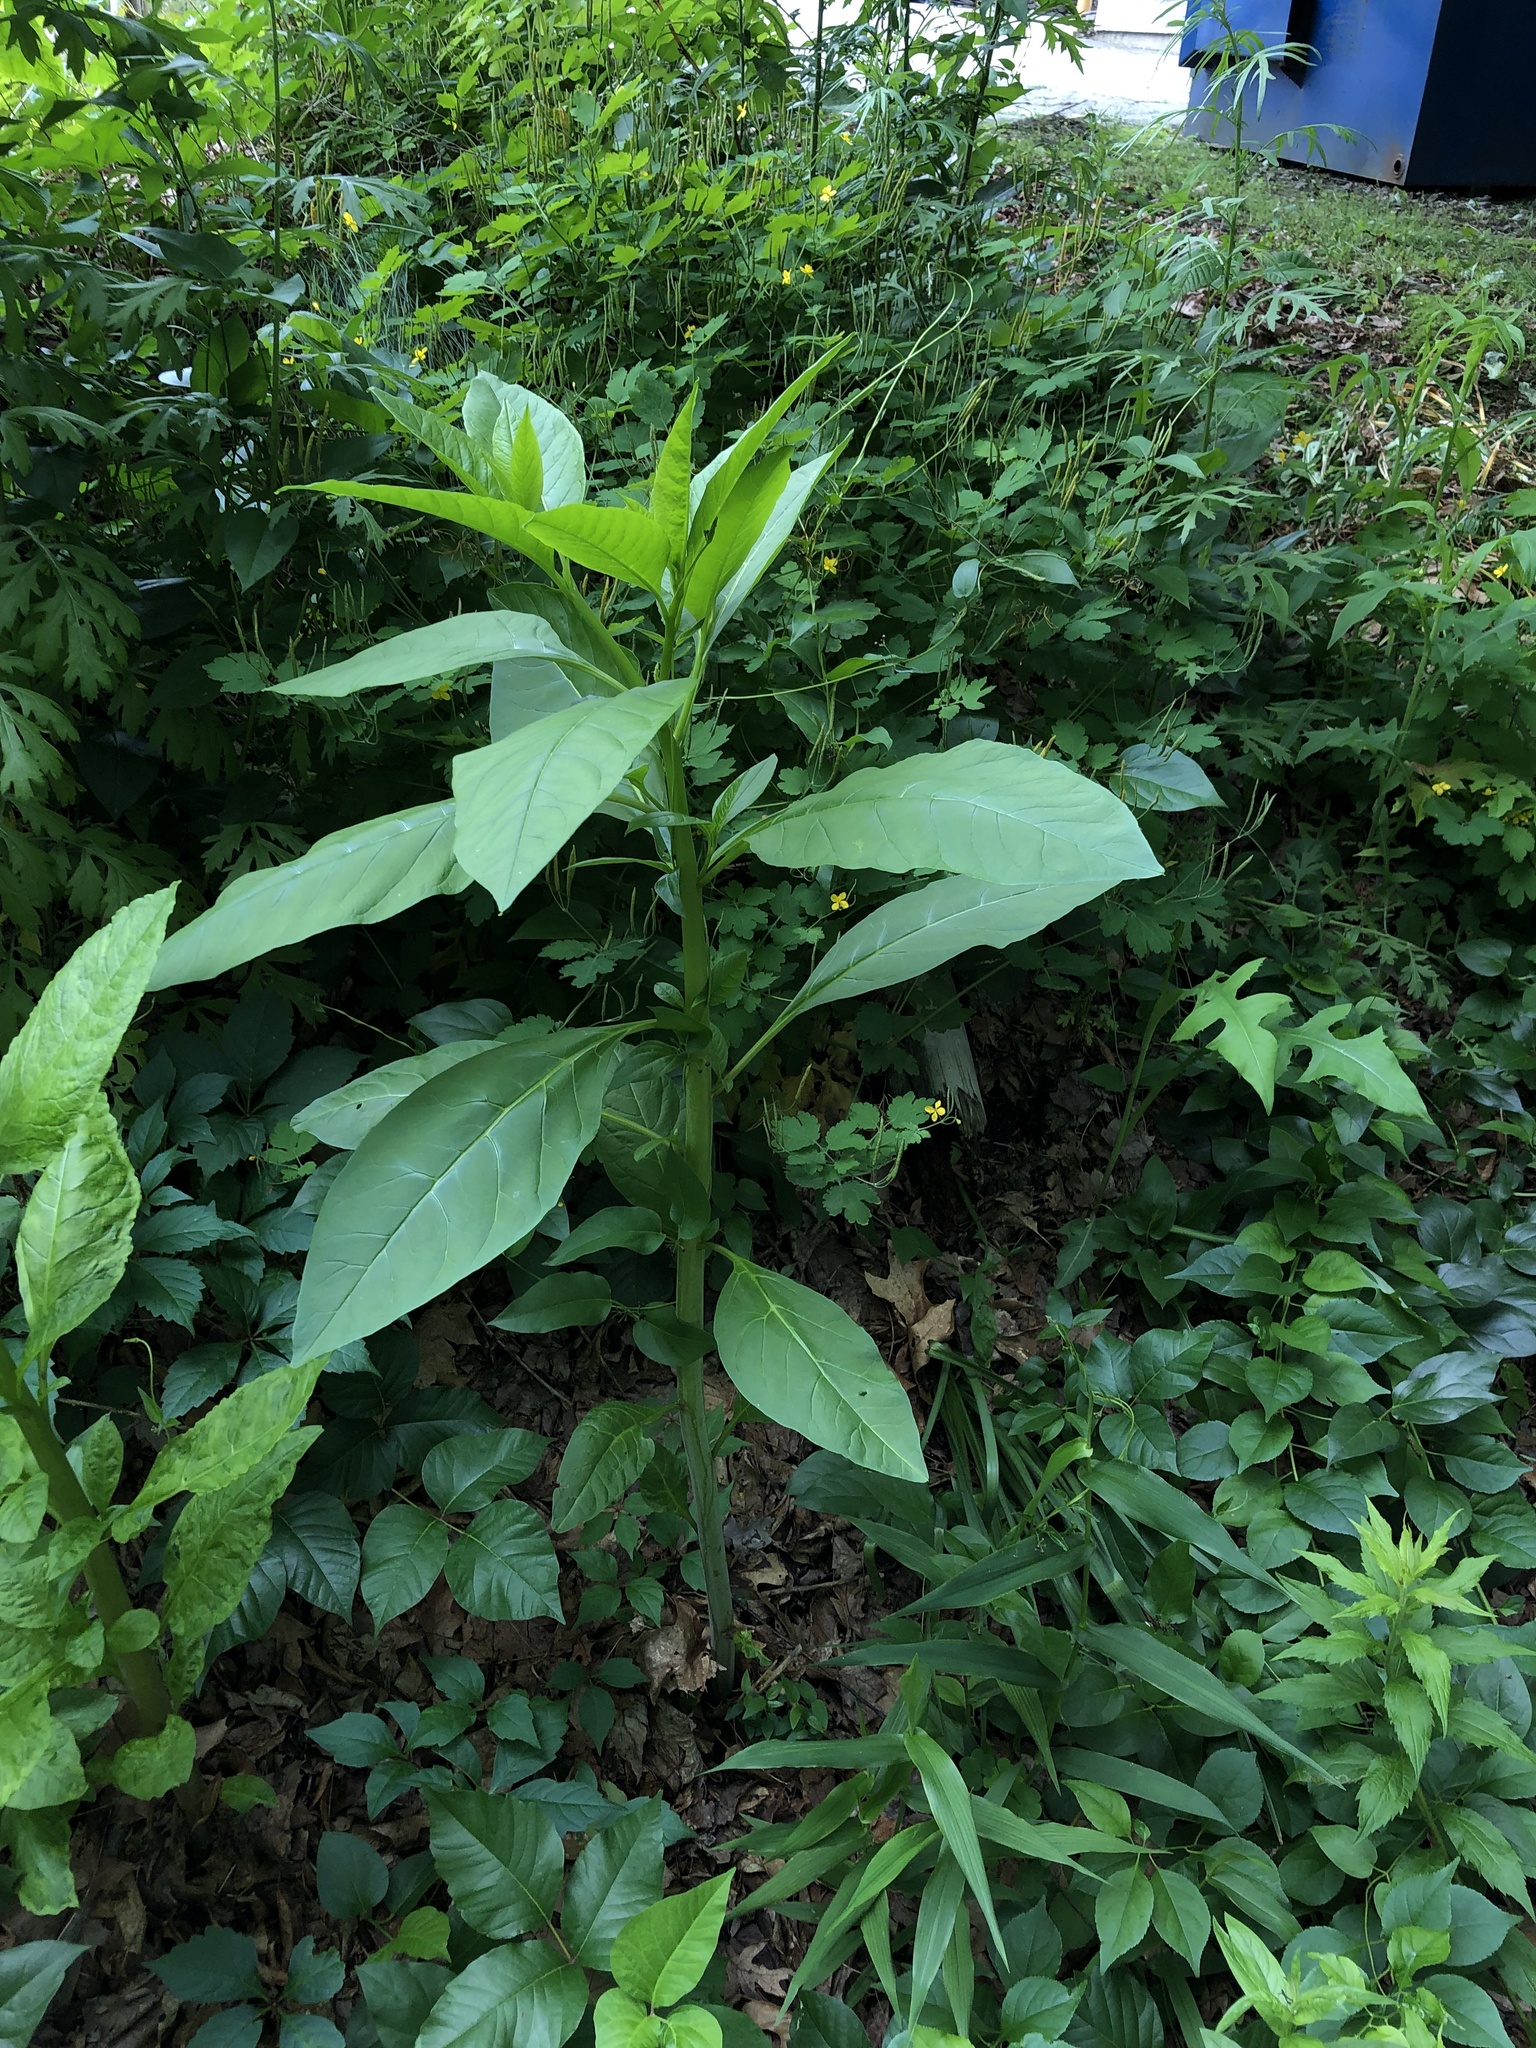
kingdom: Plantae
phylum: Tracheophyta
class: Magnoliopsida
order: Caryophyllales
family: Phytolaccaceae
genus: Phytolacca
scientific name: Phytolacca americana
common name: American pokeweed
